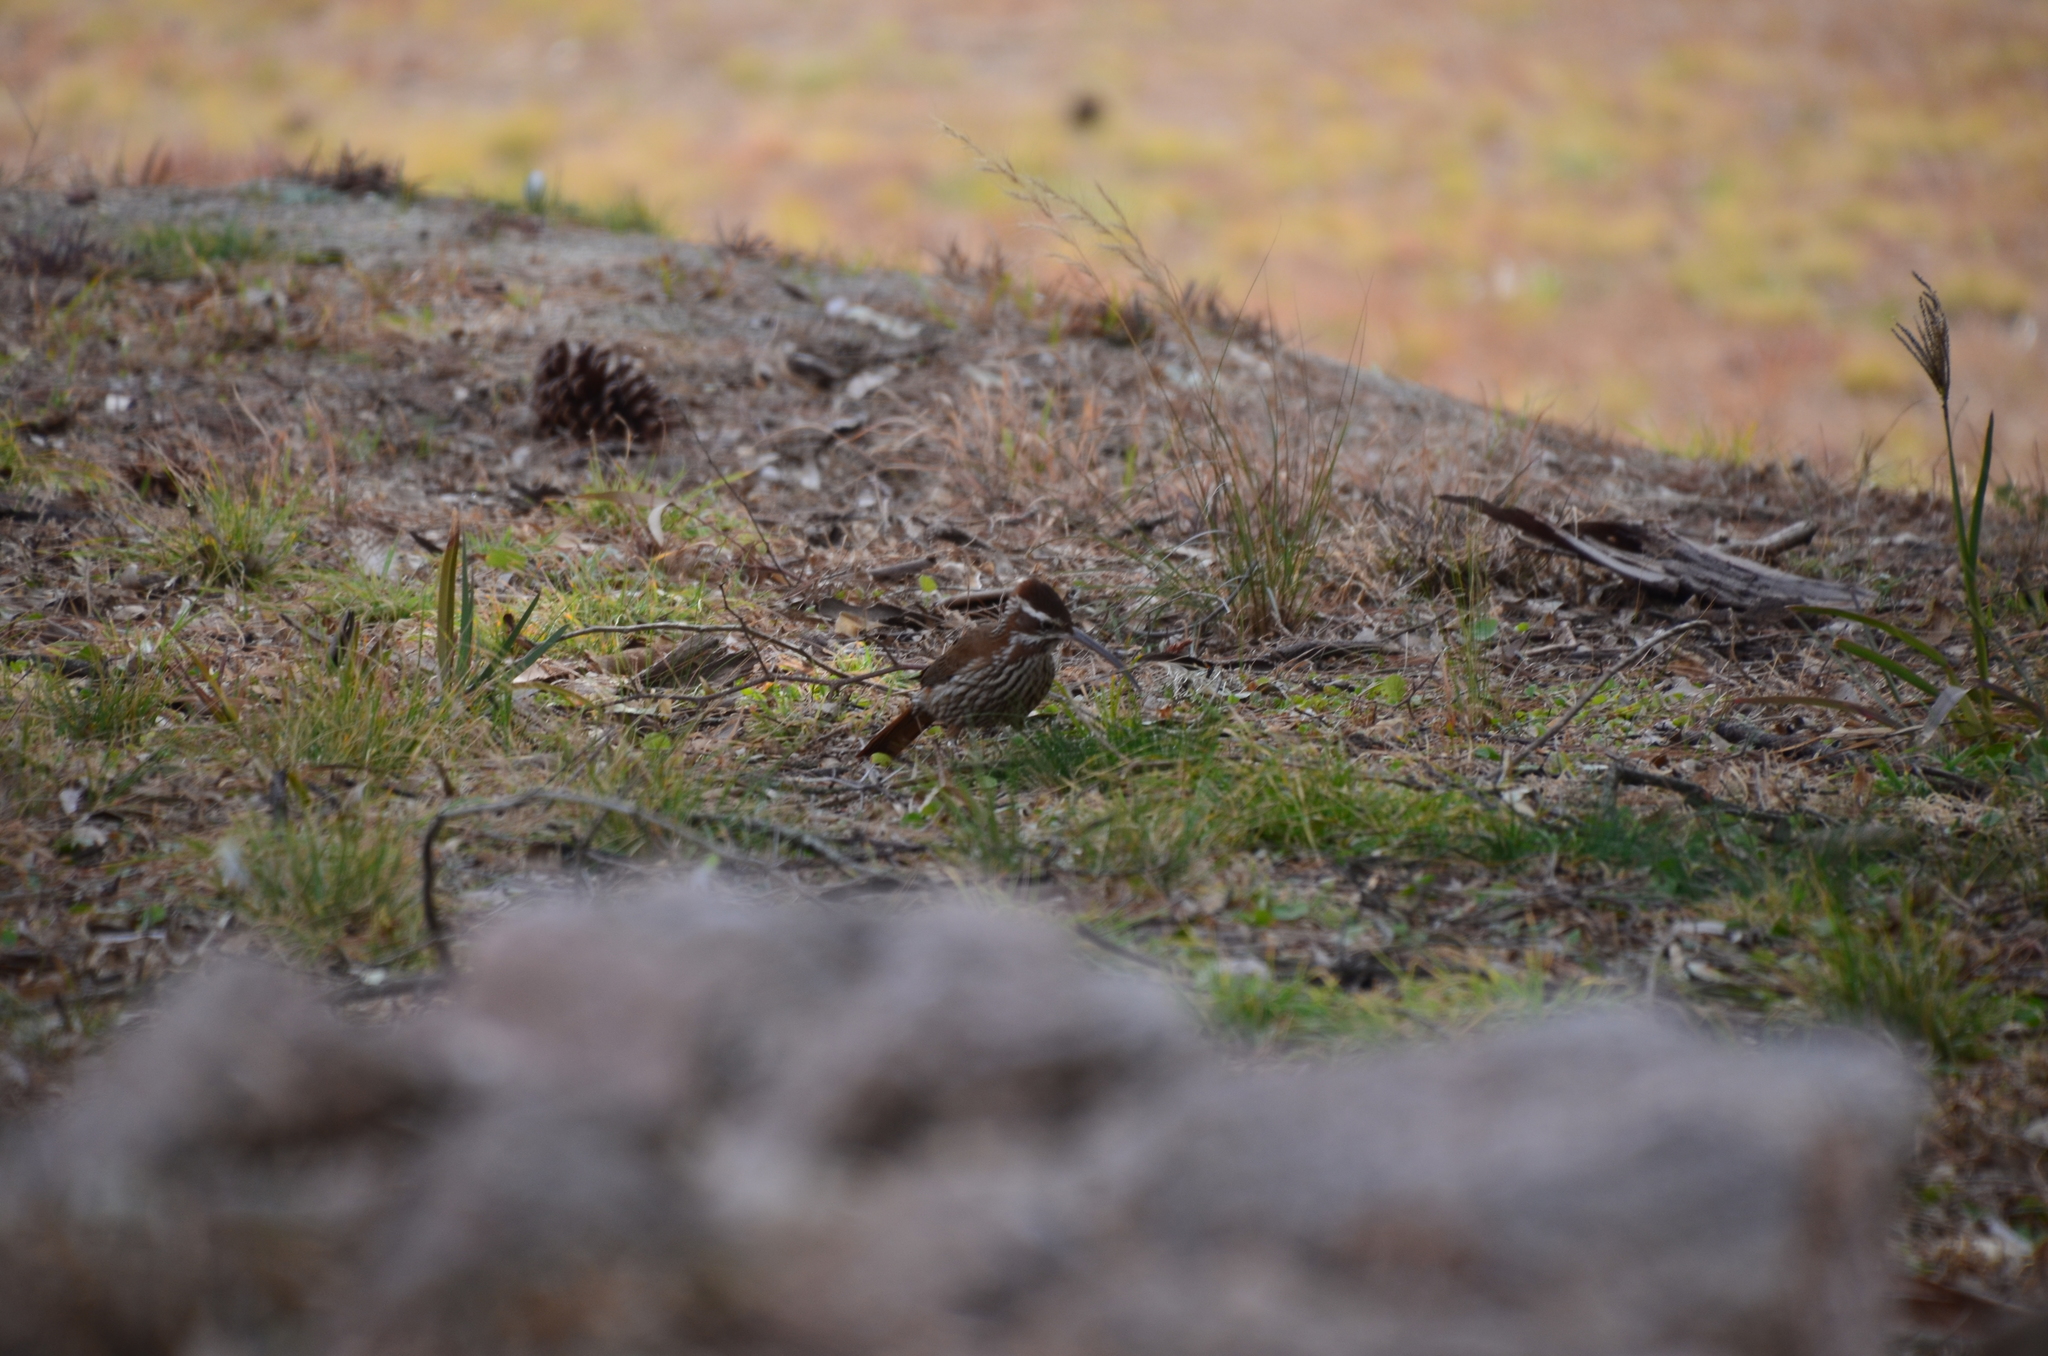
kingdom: Animalia
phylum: Chordata
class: Aves
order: Passeriformes
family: Furnariidae
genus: Drymornis
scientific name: Drymornis bridgesii
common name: Scimitar-billed woodcreeper
